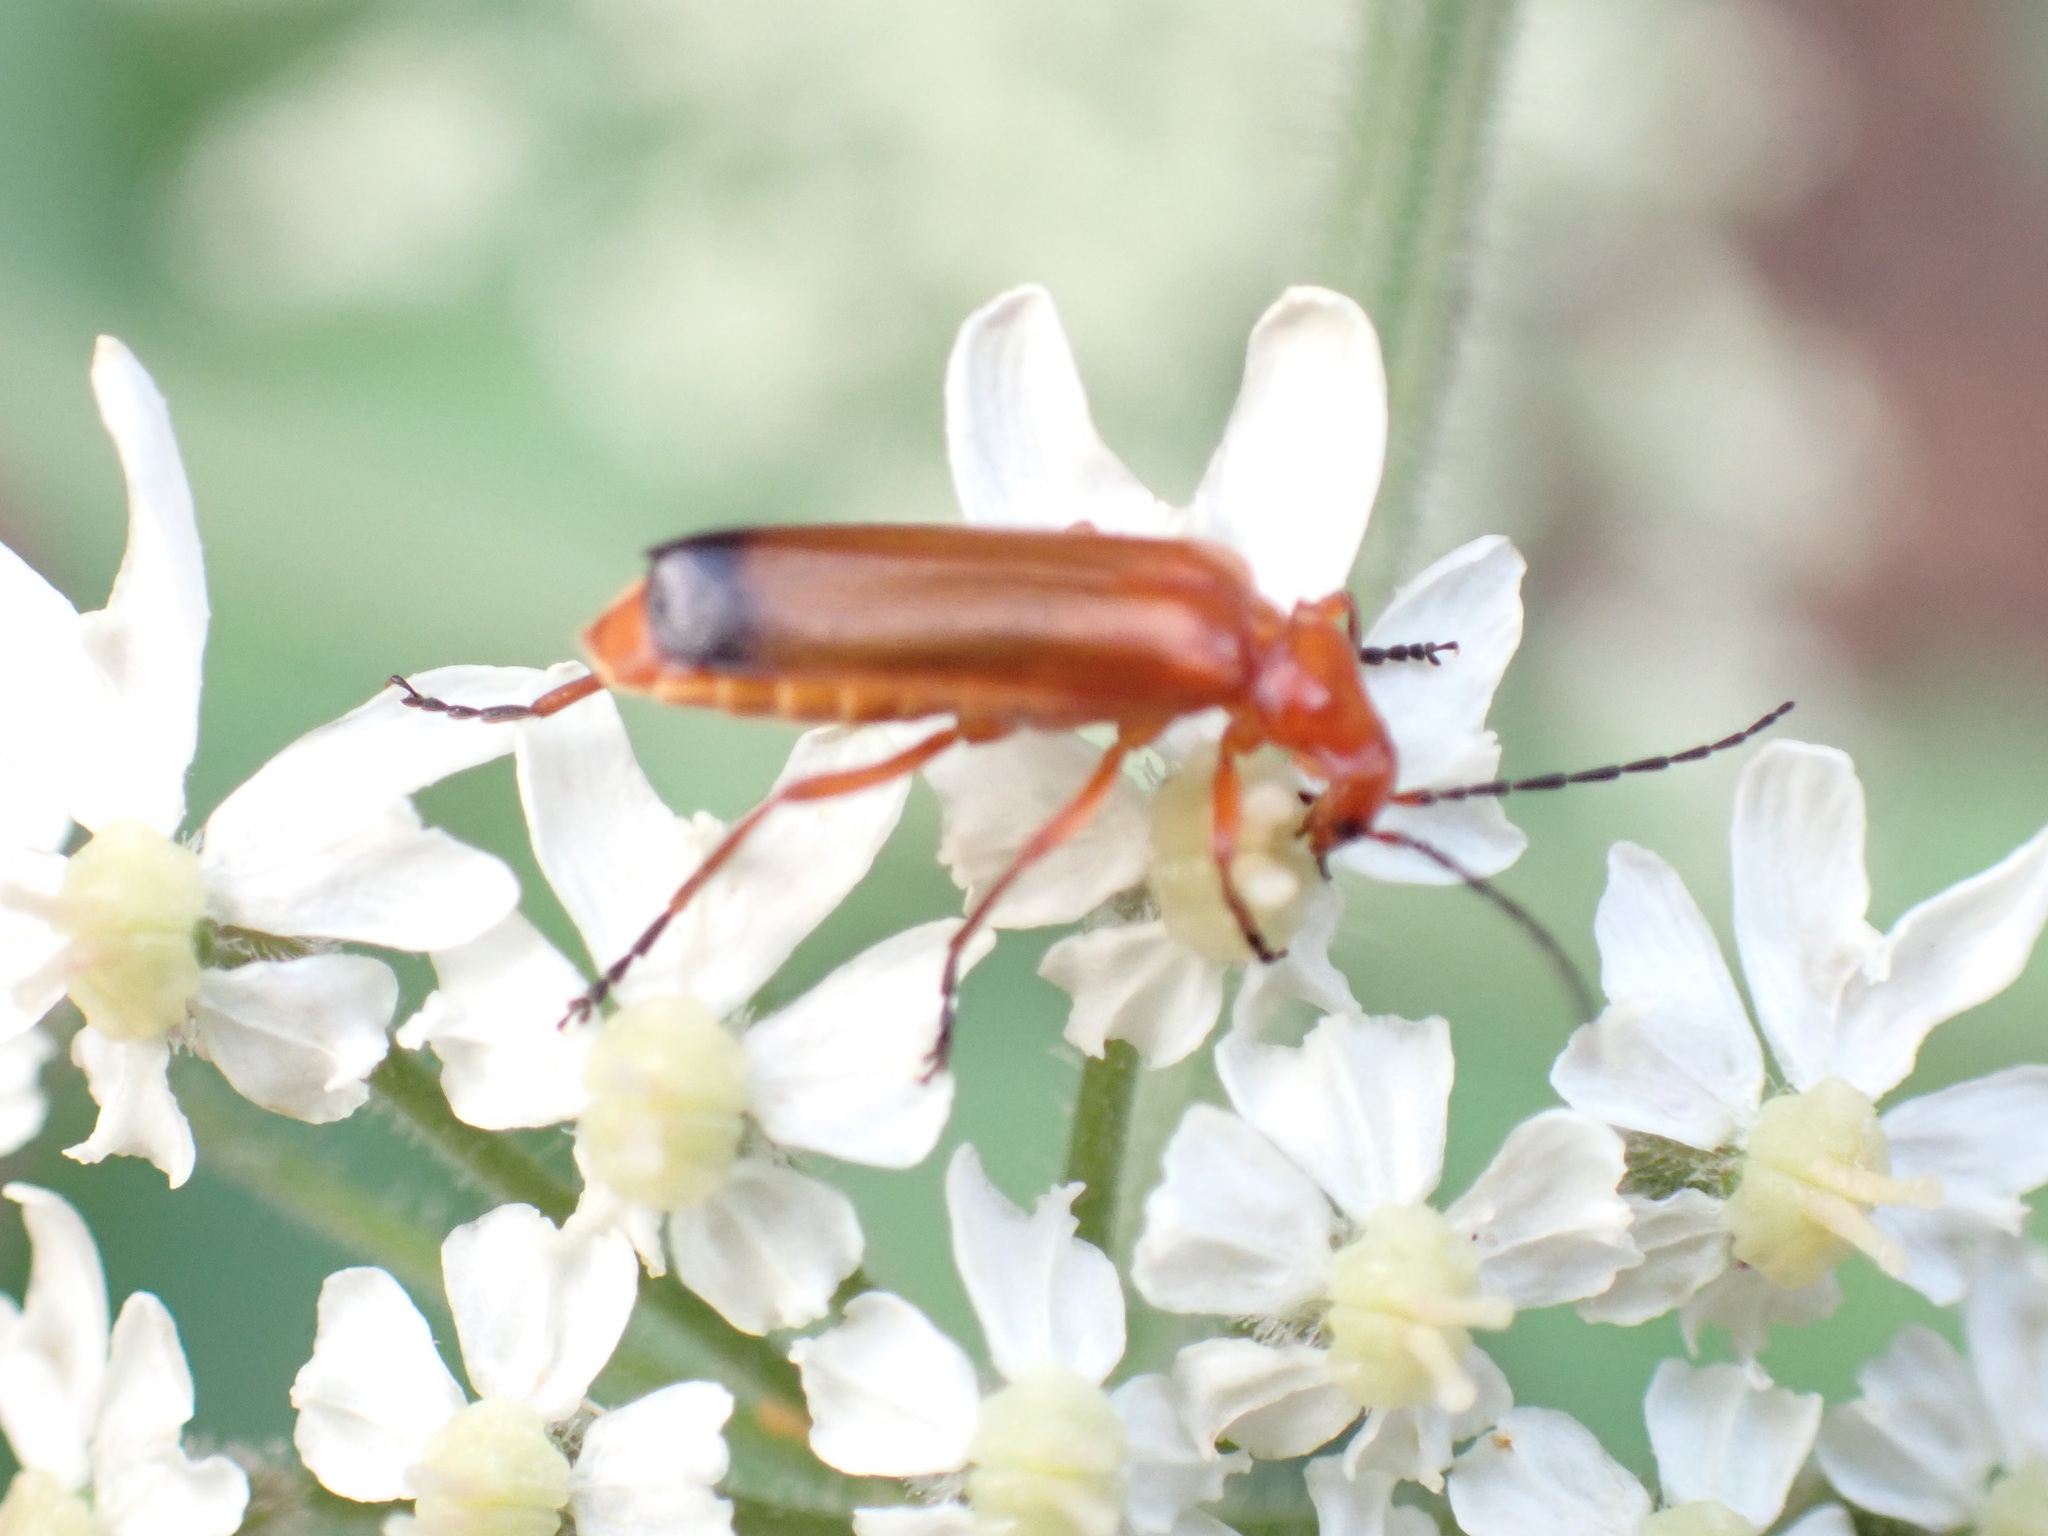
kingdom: Animalia
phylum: Arthropoda
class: Insecta
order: Coleoptera
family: Cantharidae
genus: Rhagonycha
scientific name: Rhagonycha fulva
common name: Common red soldier beetle
